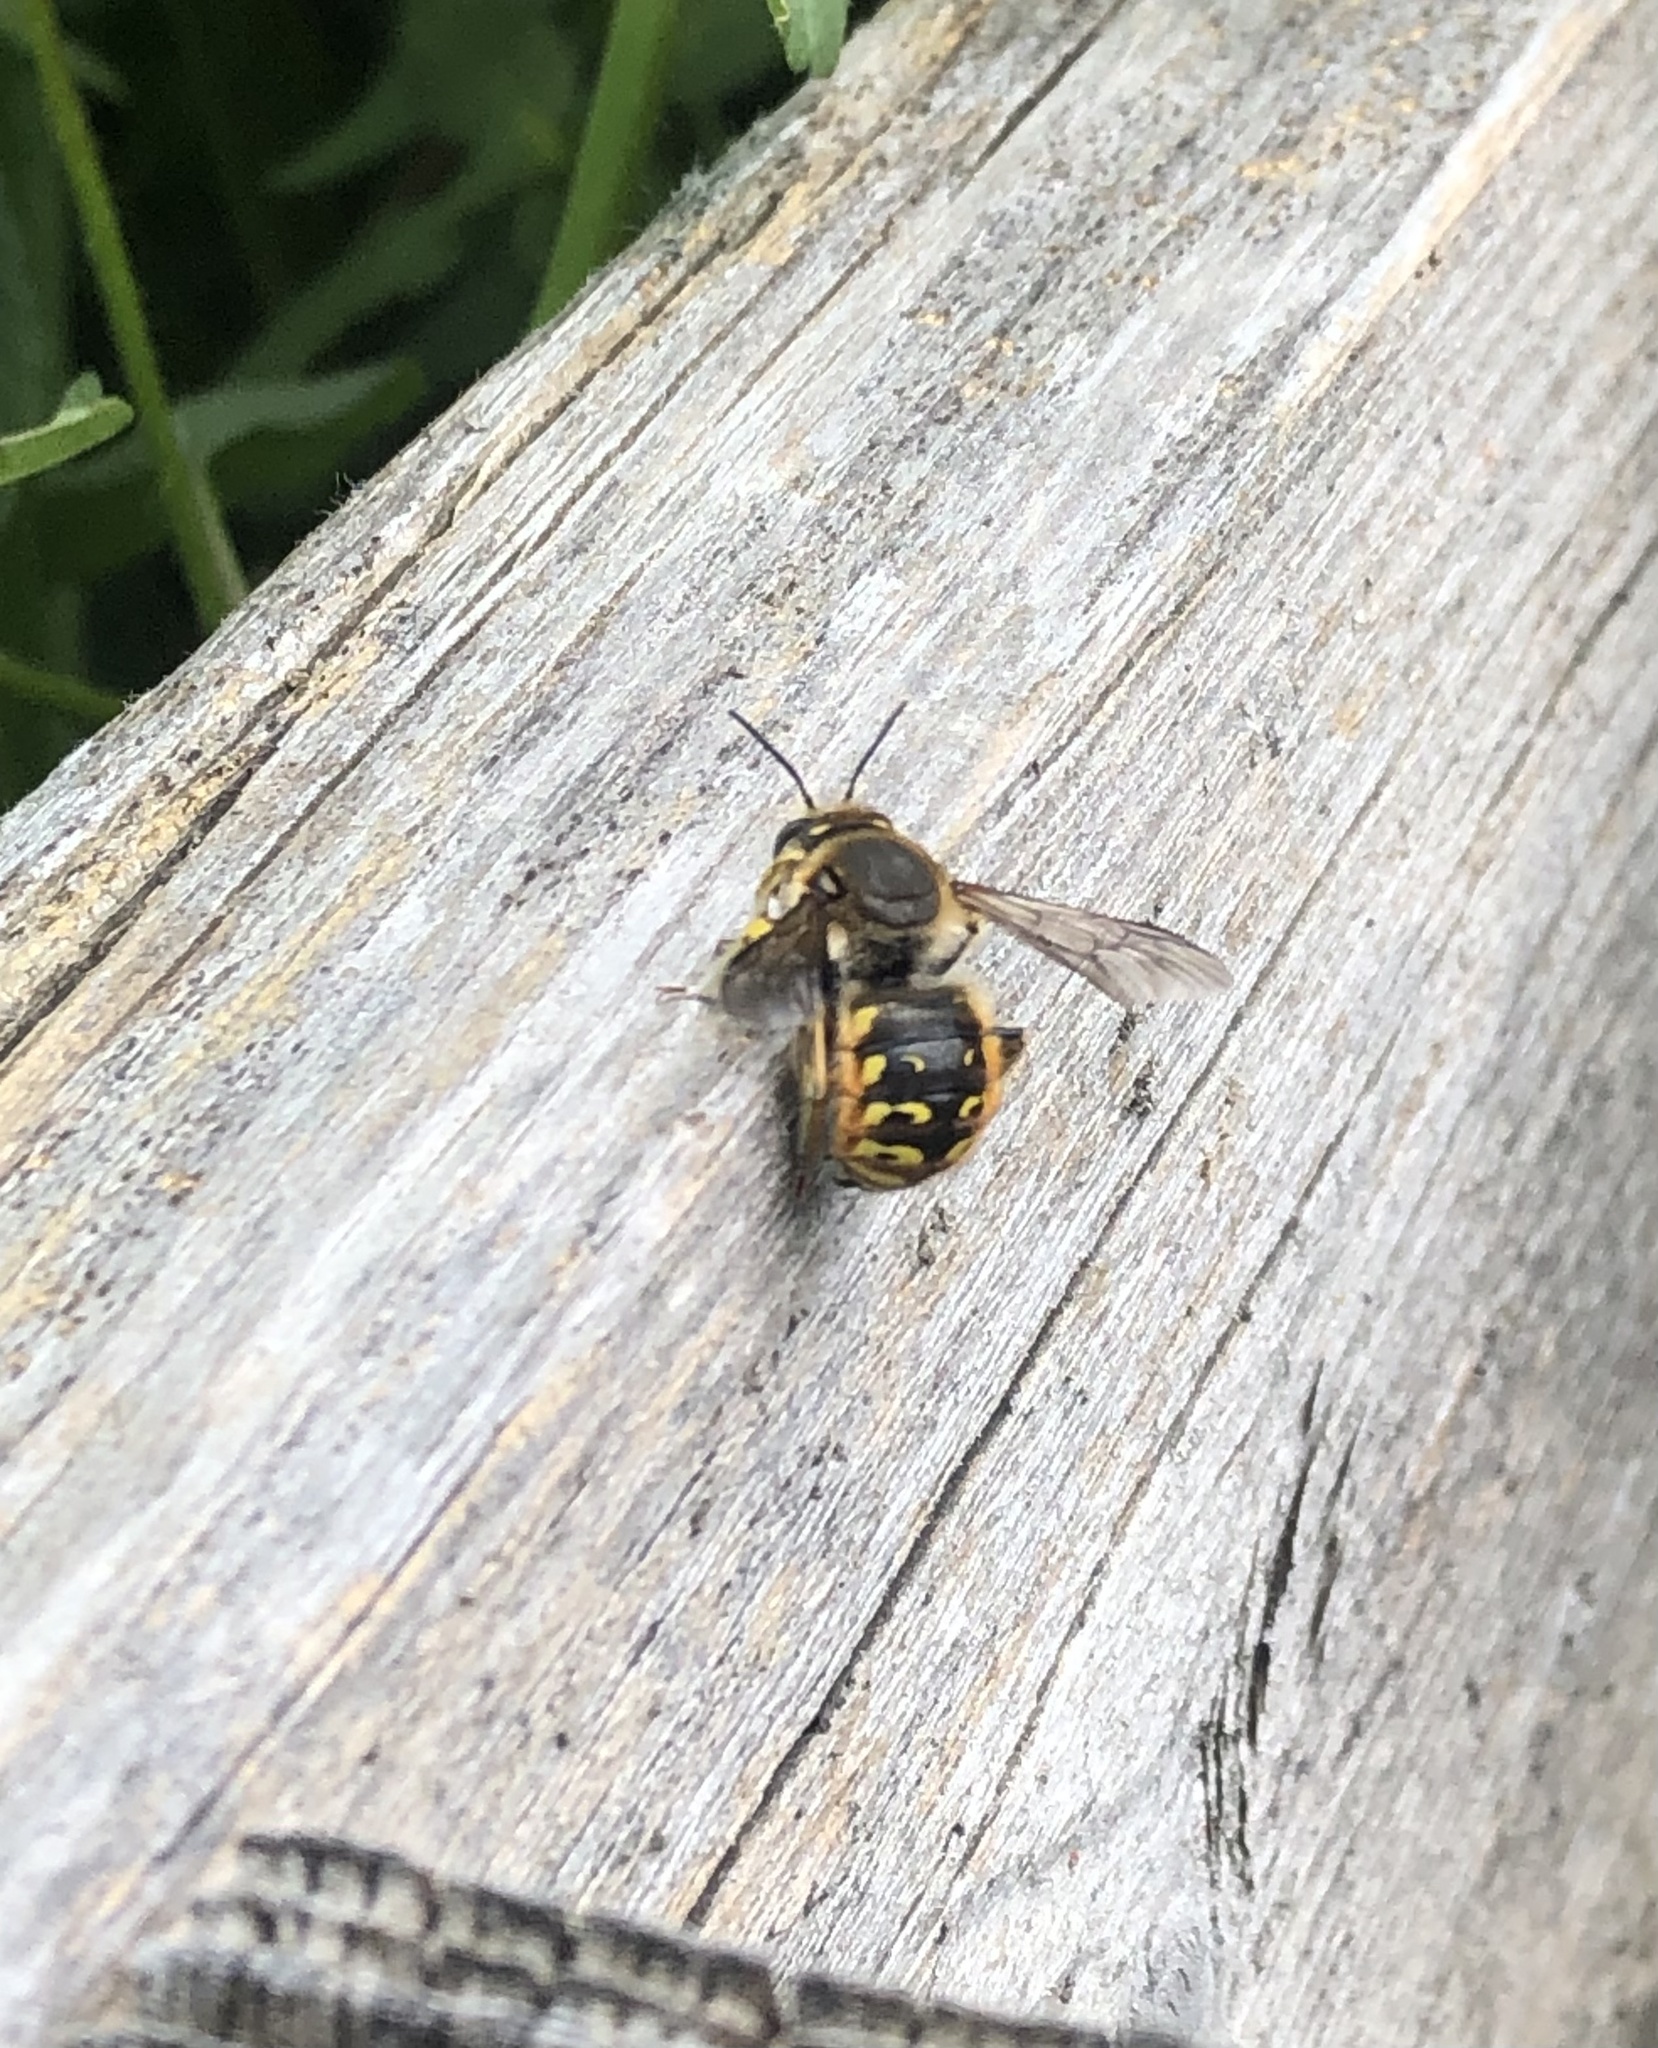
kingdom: Animalia
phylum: Arthropoda
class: Insecta
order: Hymenoptera
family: Megachilidae
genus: Anthidium
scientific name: Anthidium manicatum
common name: Wool carder bee
